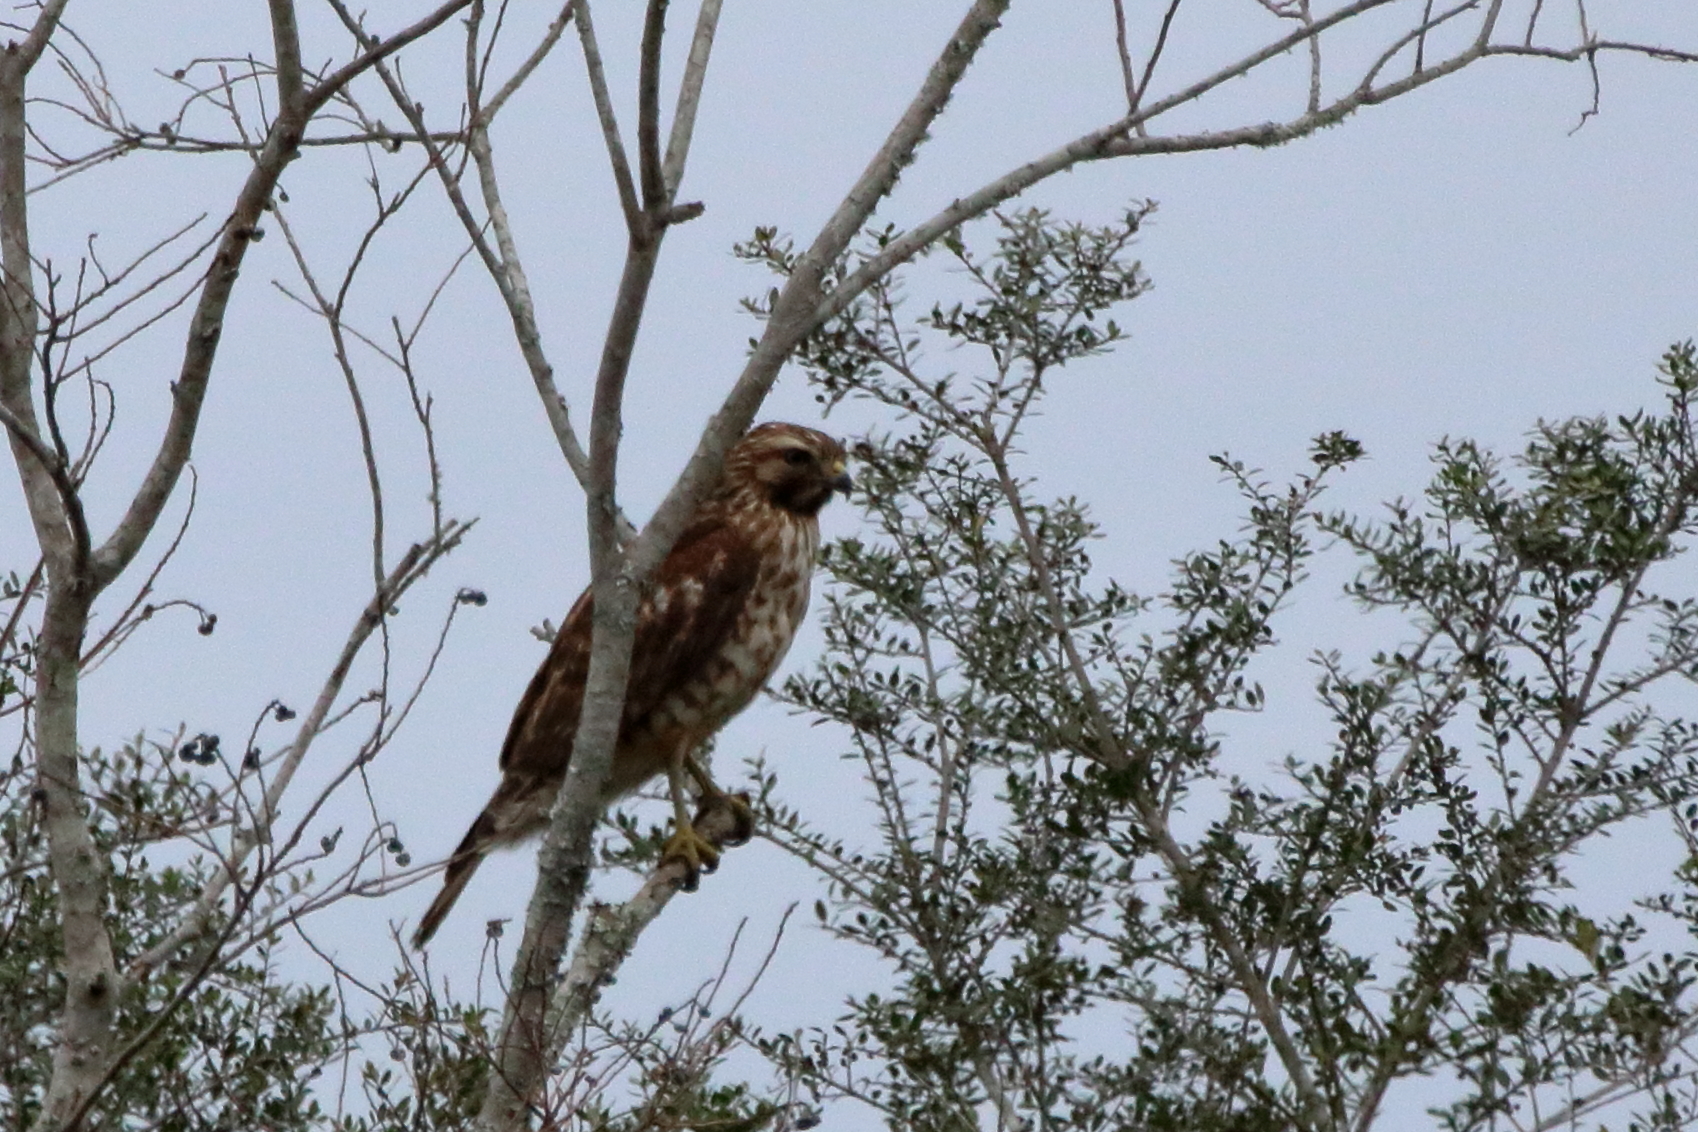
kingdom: Animalia
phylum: Chordata
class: Aves
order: Accipitriformes
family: Accipitridae
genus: Buteo
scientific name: Buteo lineatus
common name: Red-shouldered hawk
